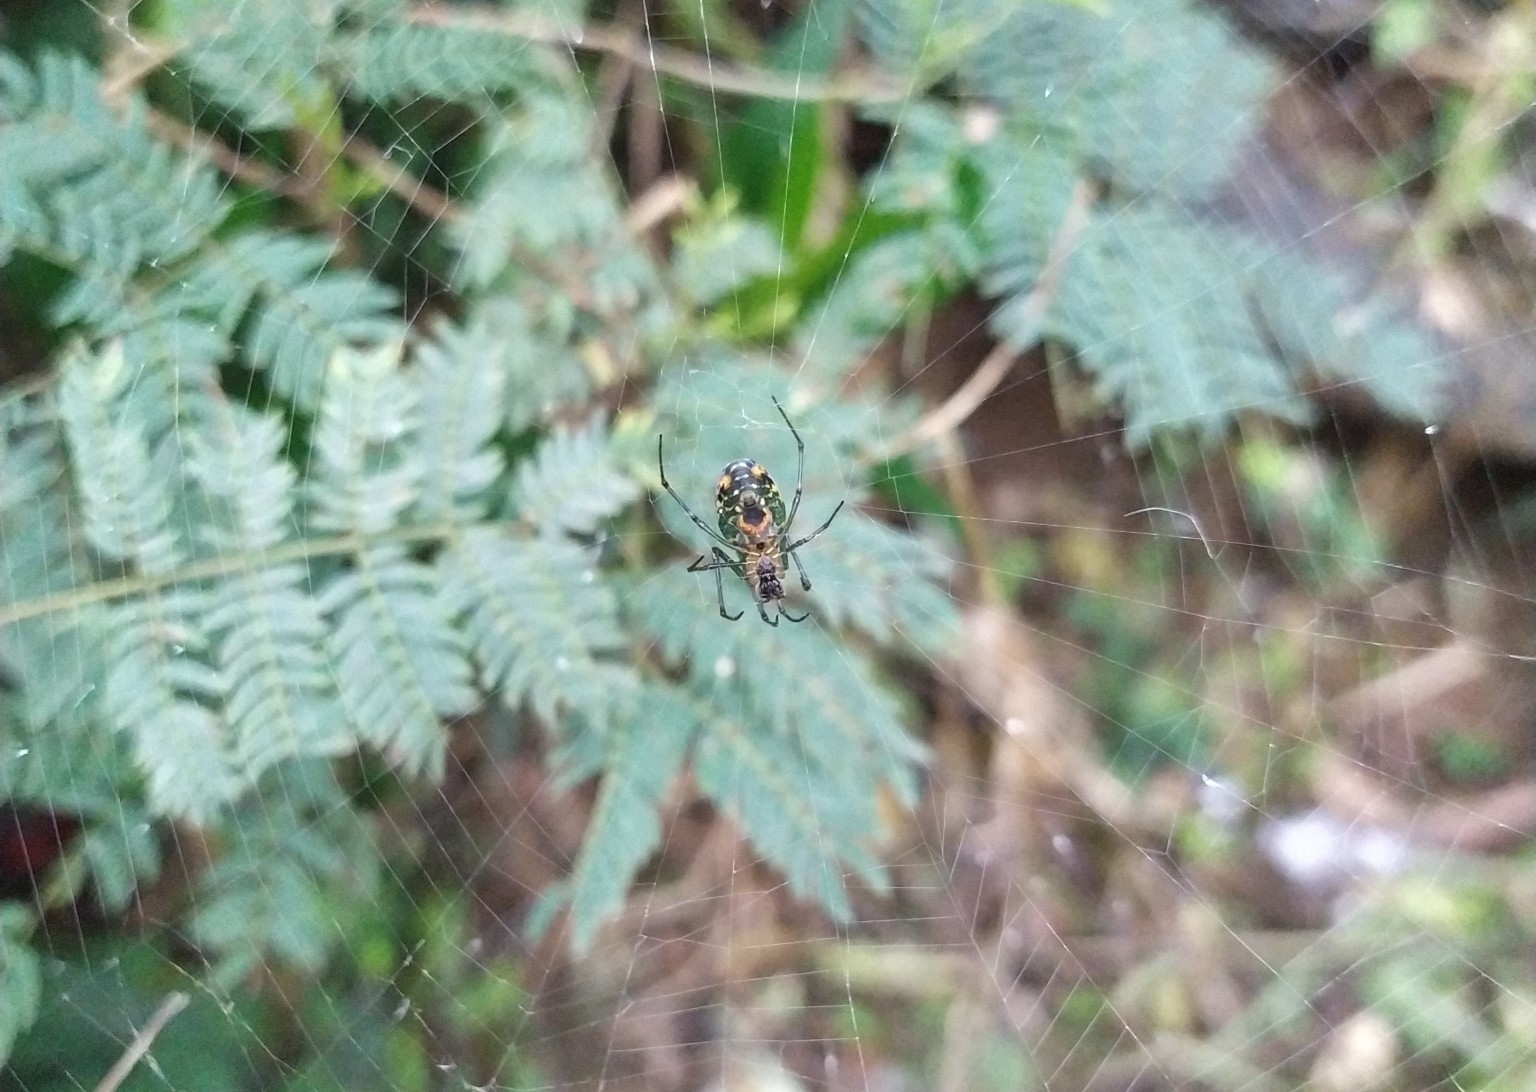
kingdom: Animalia
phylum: Arthropoda
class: Arachnida
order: Araneae
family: Tetragnathidae
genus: Leucauge
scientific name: Leucauge argyrobapta
